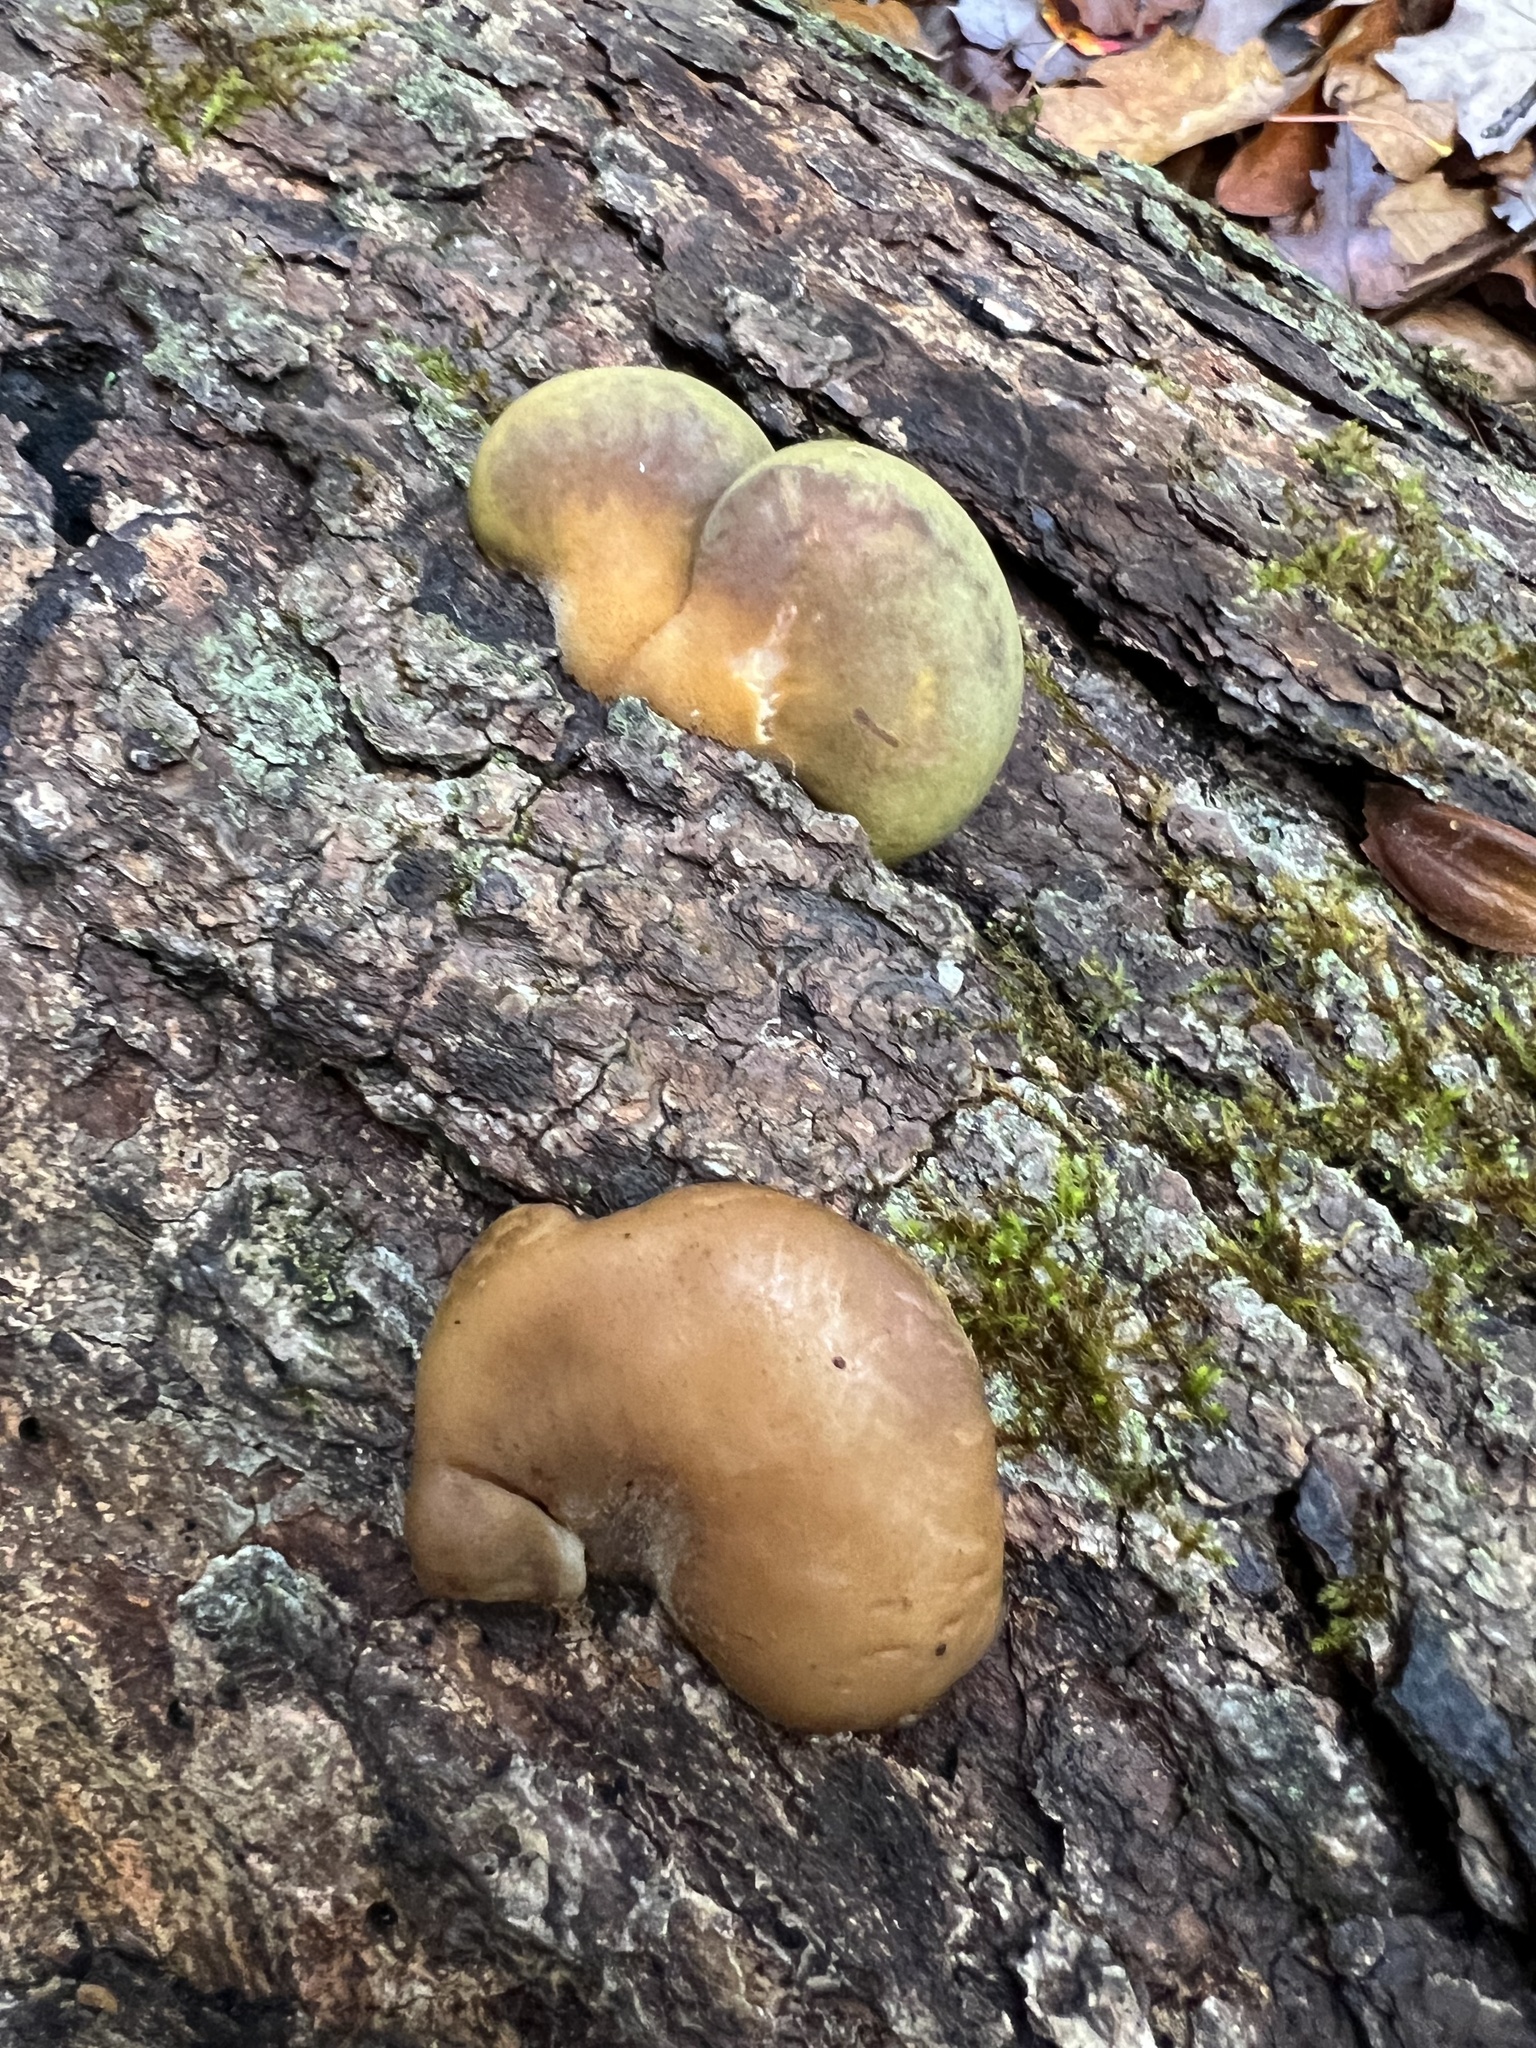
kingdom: Fungi
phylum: Basidiomycota
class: Agaricomycetes
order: Agaricales
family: Sarcomyxaceae
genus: Sarcomyxa
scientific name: Sarcomyxa serotina
